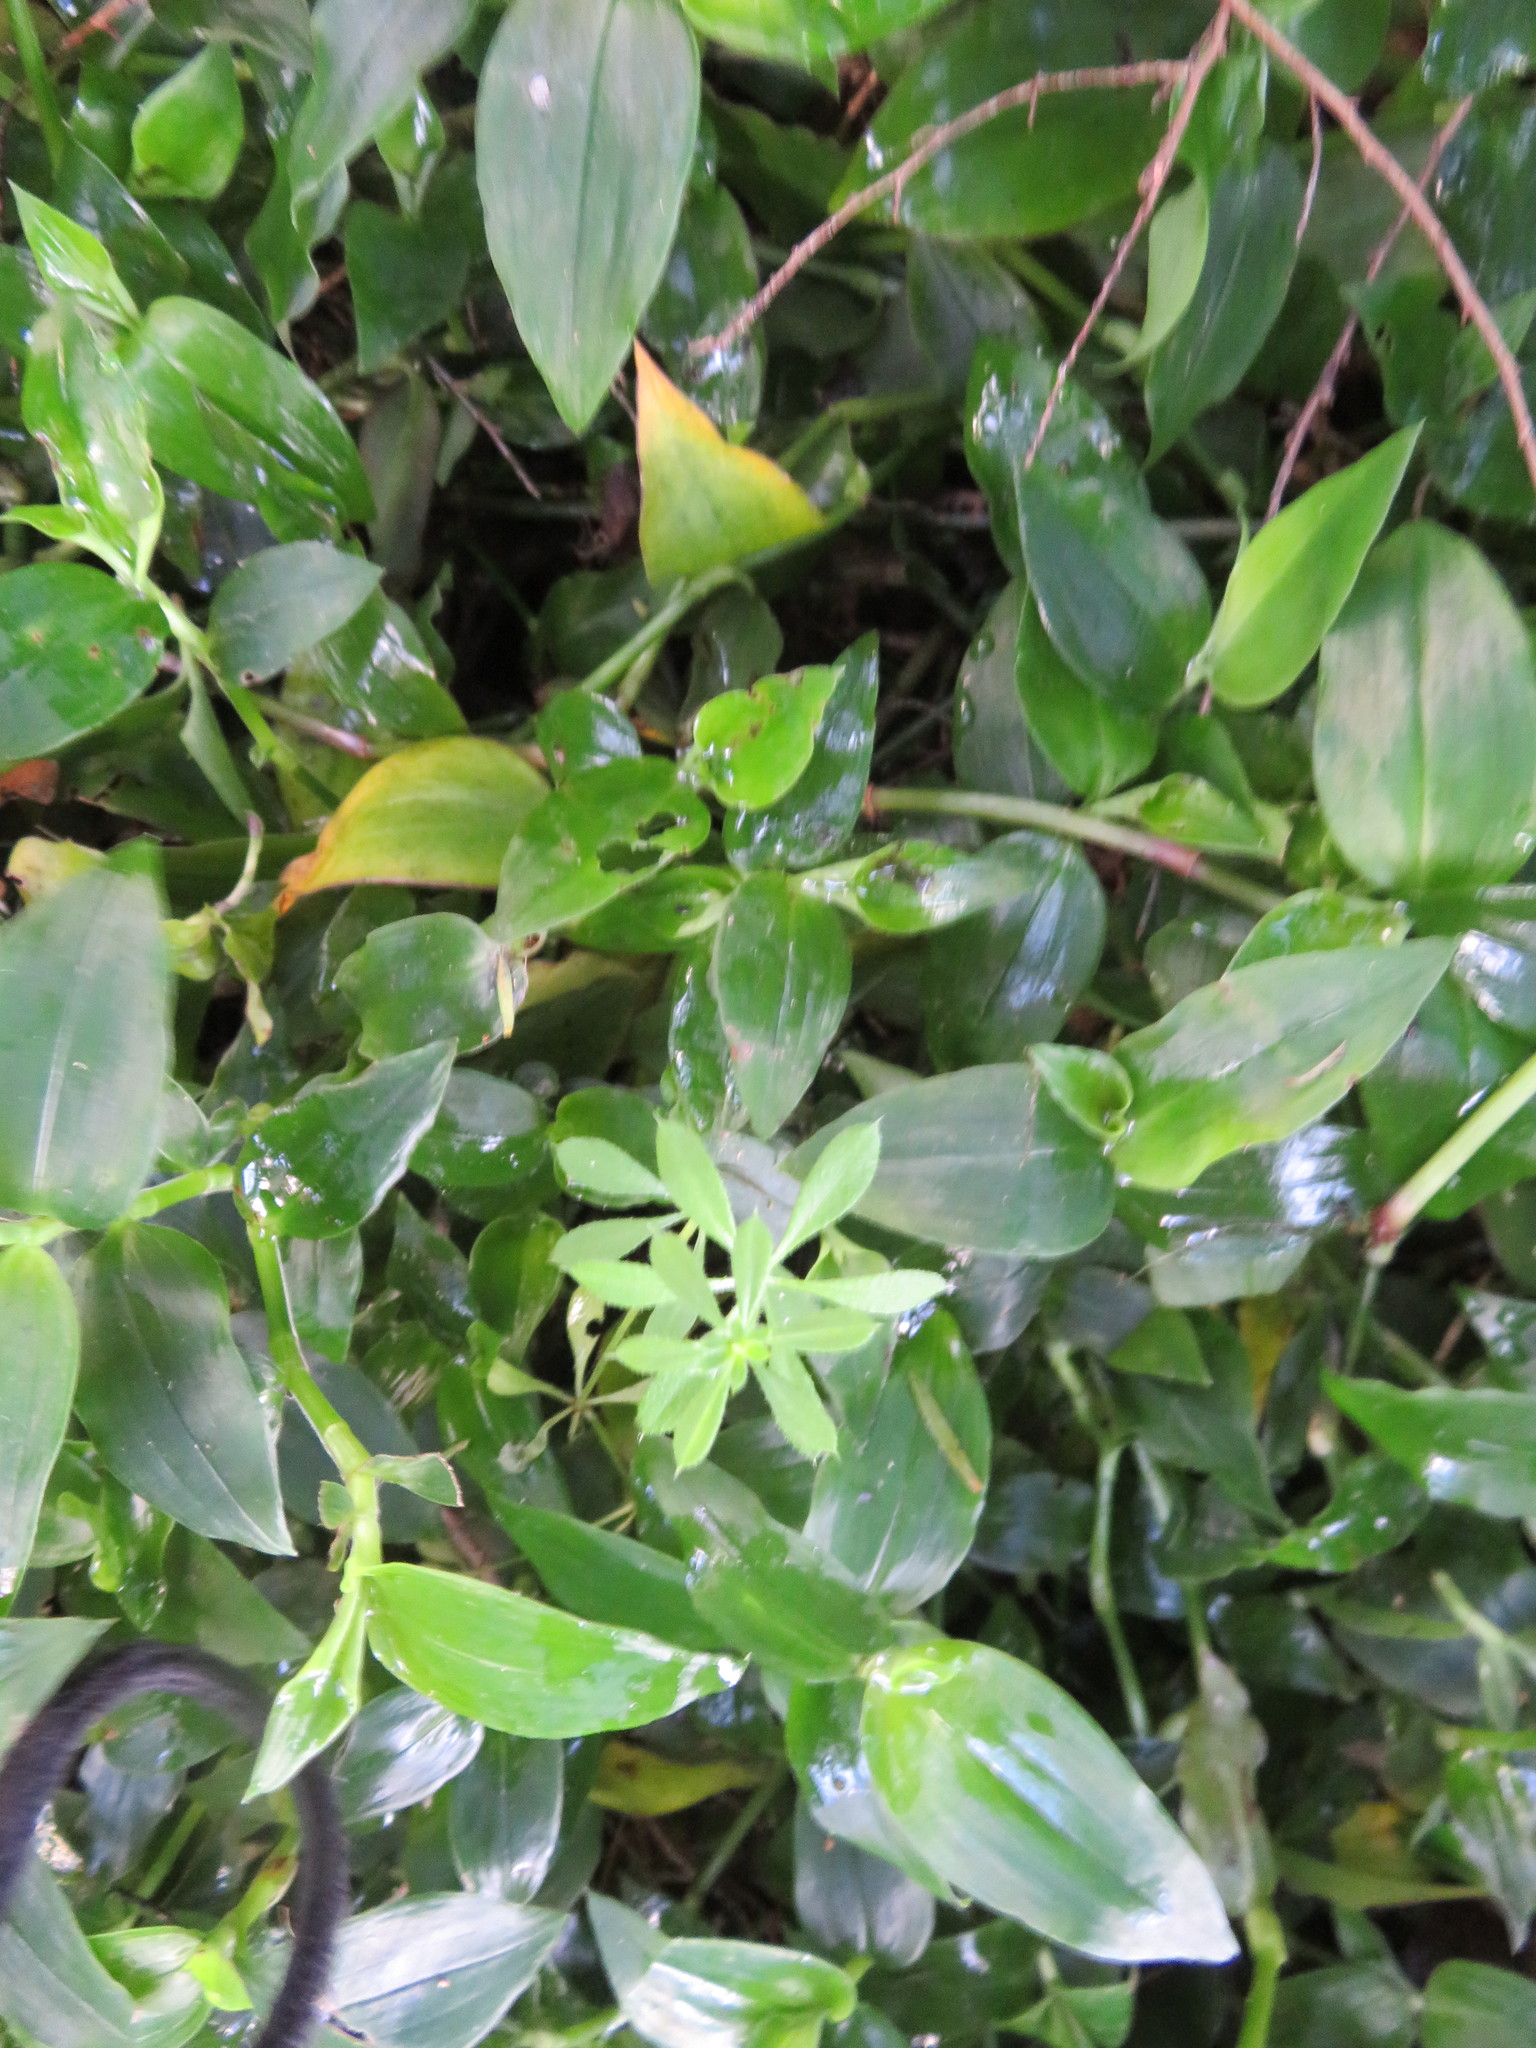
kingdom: Plantae
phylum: Tracheophyta
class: Magnoliopsida
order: Gentianales
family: Rubiaceae
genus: Galium
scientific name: Galium aparine
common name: Cleavers
